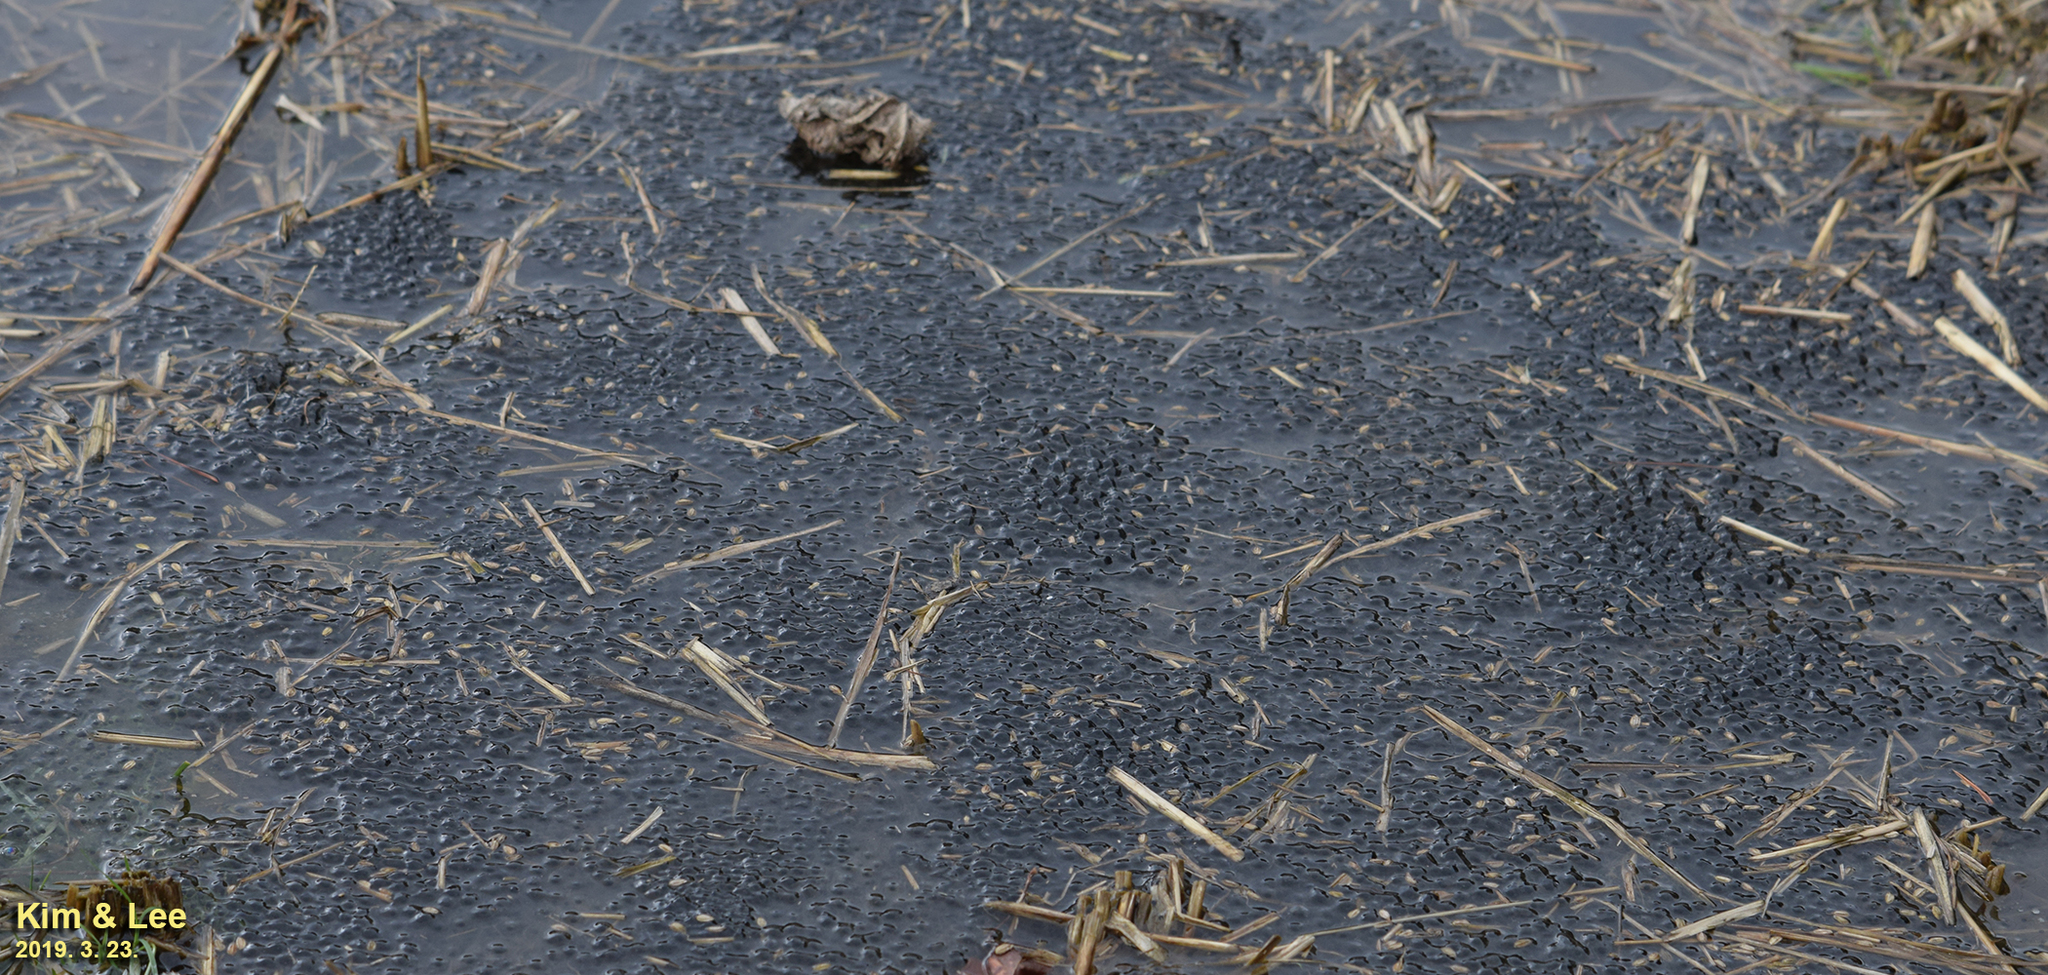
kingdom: Animalia
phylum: Chordata
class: Amphibia
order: Anura
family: Ranidae
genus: Rana
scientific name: Rana uenoi
